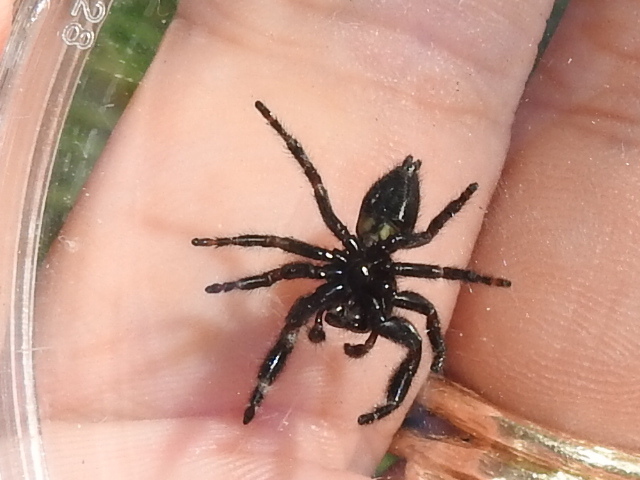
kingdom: Animalia
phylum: Arthropoda
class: Arachnida
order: Araneae
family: Salticidae
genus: Phidippus
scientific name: Phidippus audax
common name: Bold jumper
